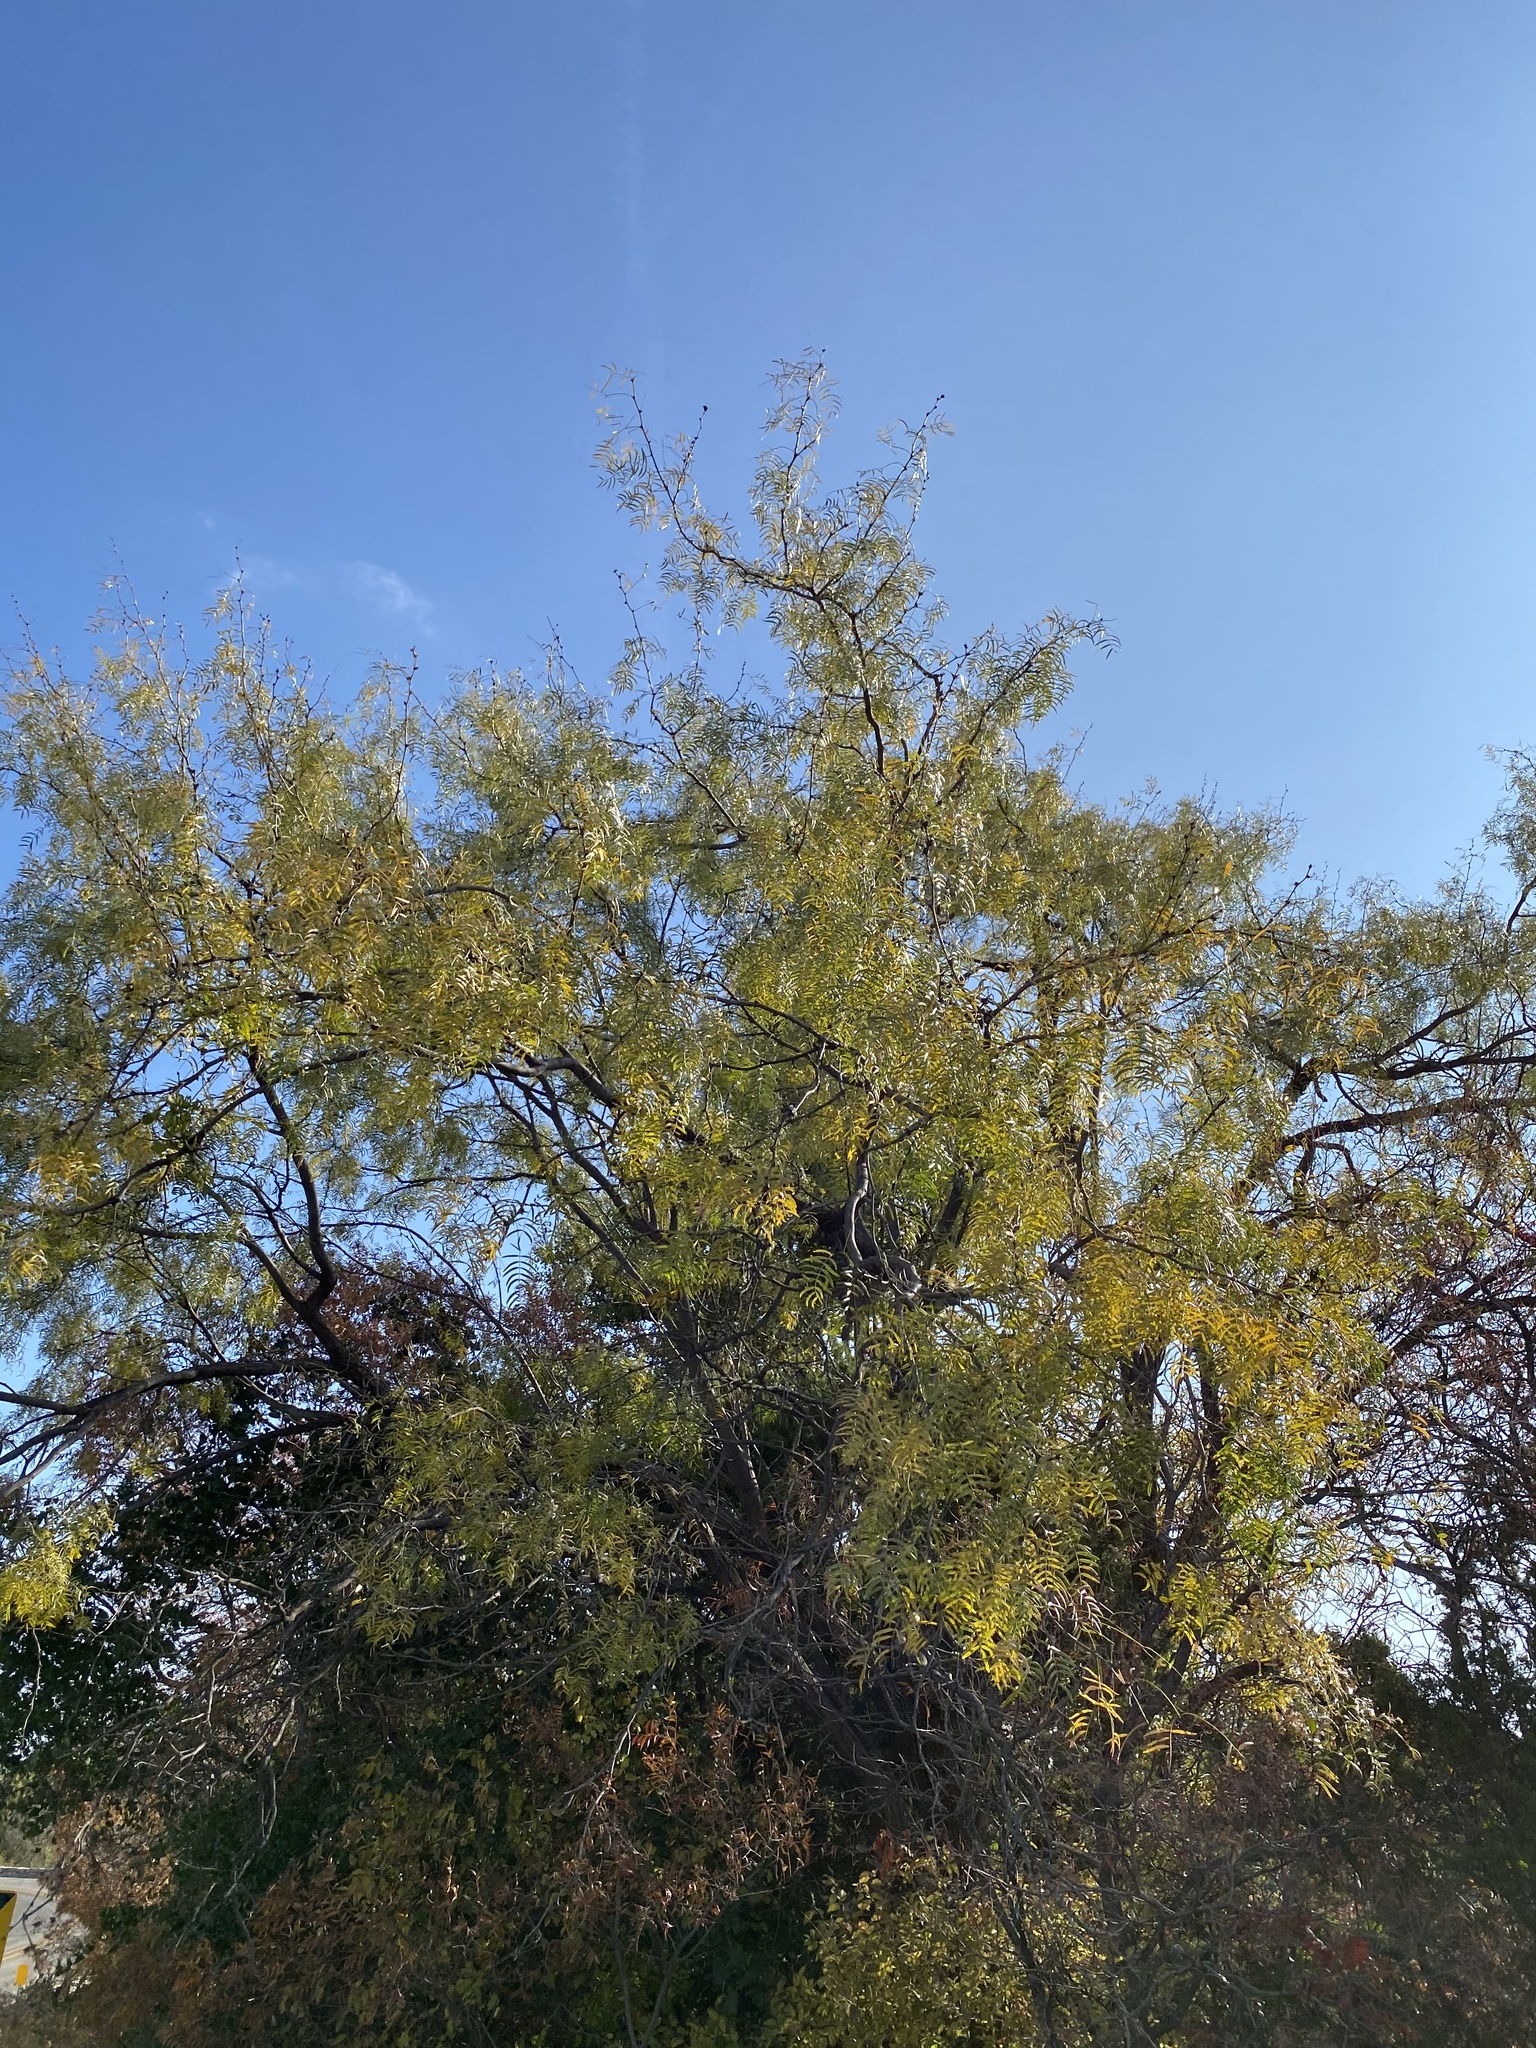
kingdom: Plantae
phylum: Tracheophyta
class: Magnoliopsida
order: Fabales
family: Fabaceae
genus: Prosopis
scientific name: Prosopis glandulosa
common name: Honey mesquite
